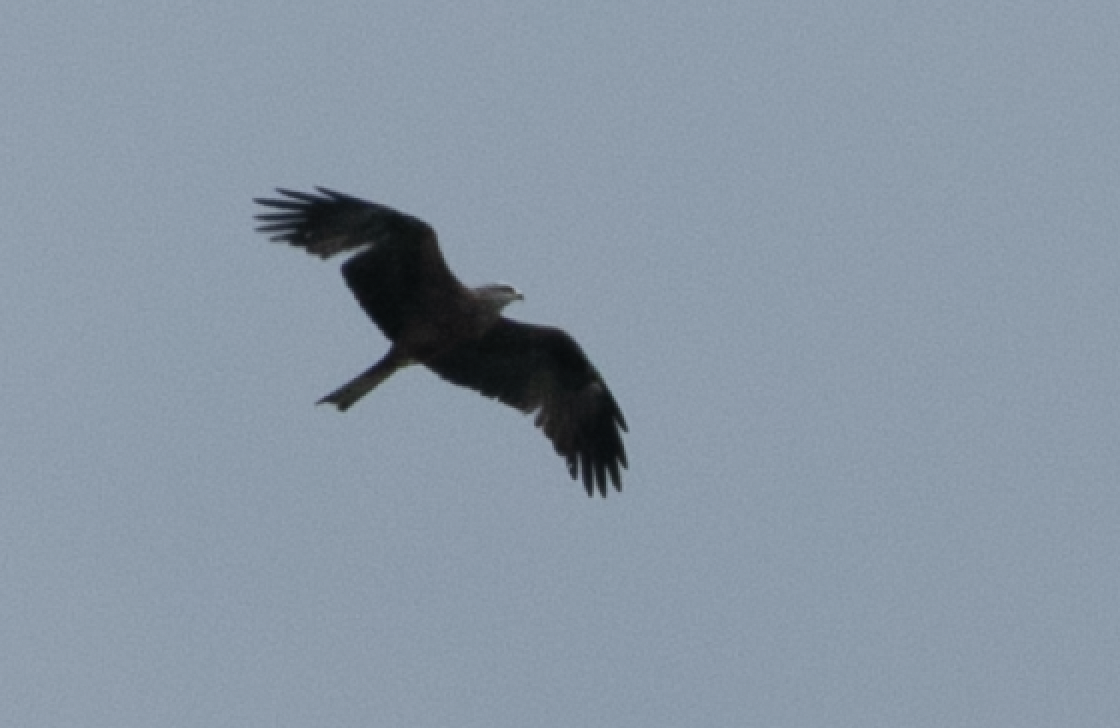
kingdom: Animalia
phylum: Chordata
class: Aves
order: Accipitriformes
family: Accipitridae
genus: Milvus
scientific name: Milvus migrans
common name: Black kite
